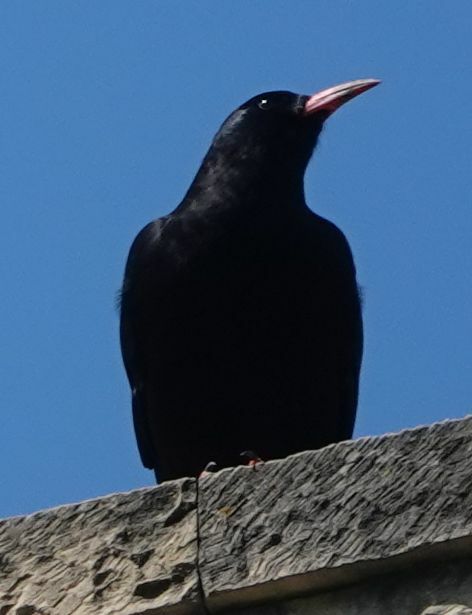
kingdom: Animalia
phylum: Chordata
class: Aves
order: Passeriformes
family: Corvidae
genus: Pyrrhocorax
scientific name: Pyrrhocorax pyrrhocorax
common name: Red-billed chough
